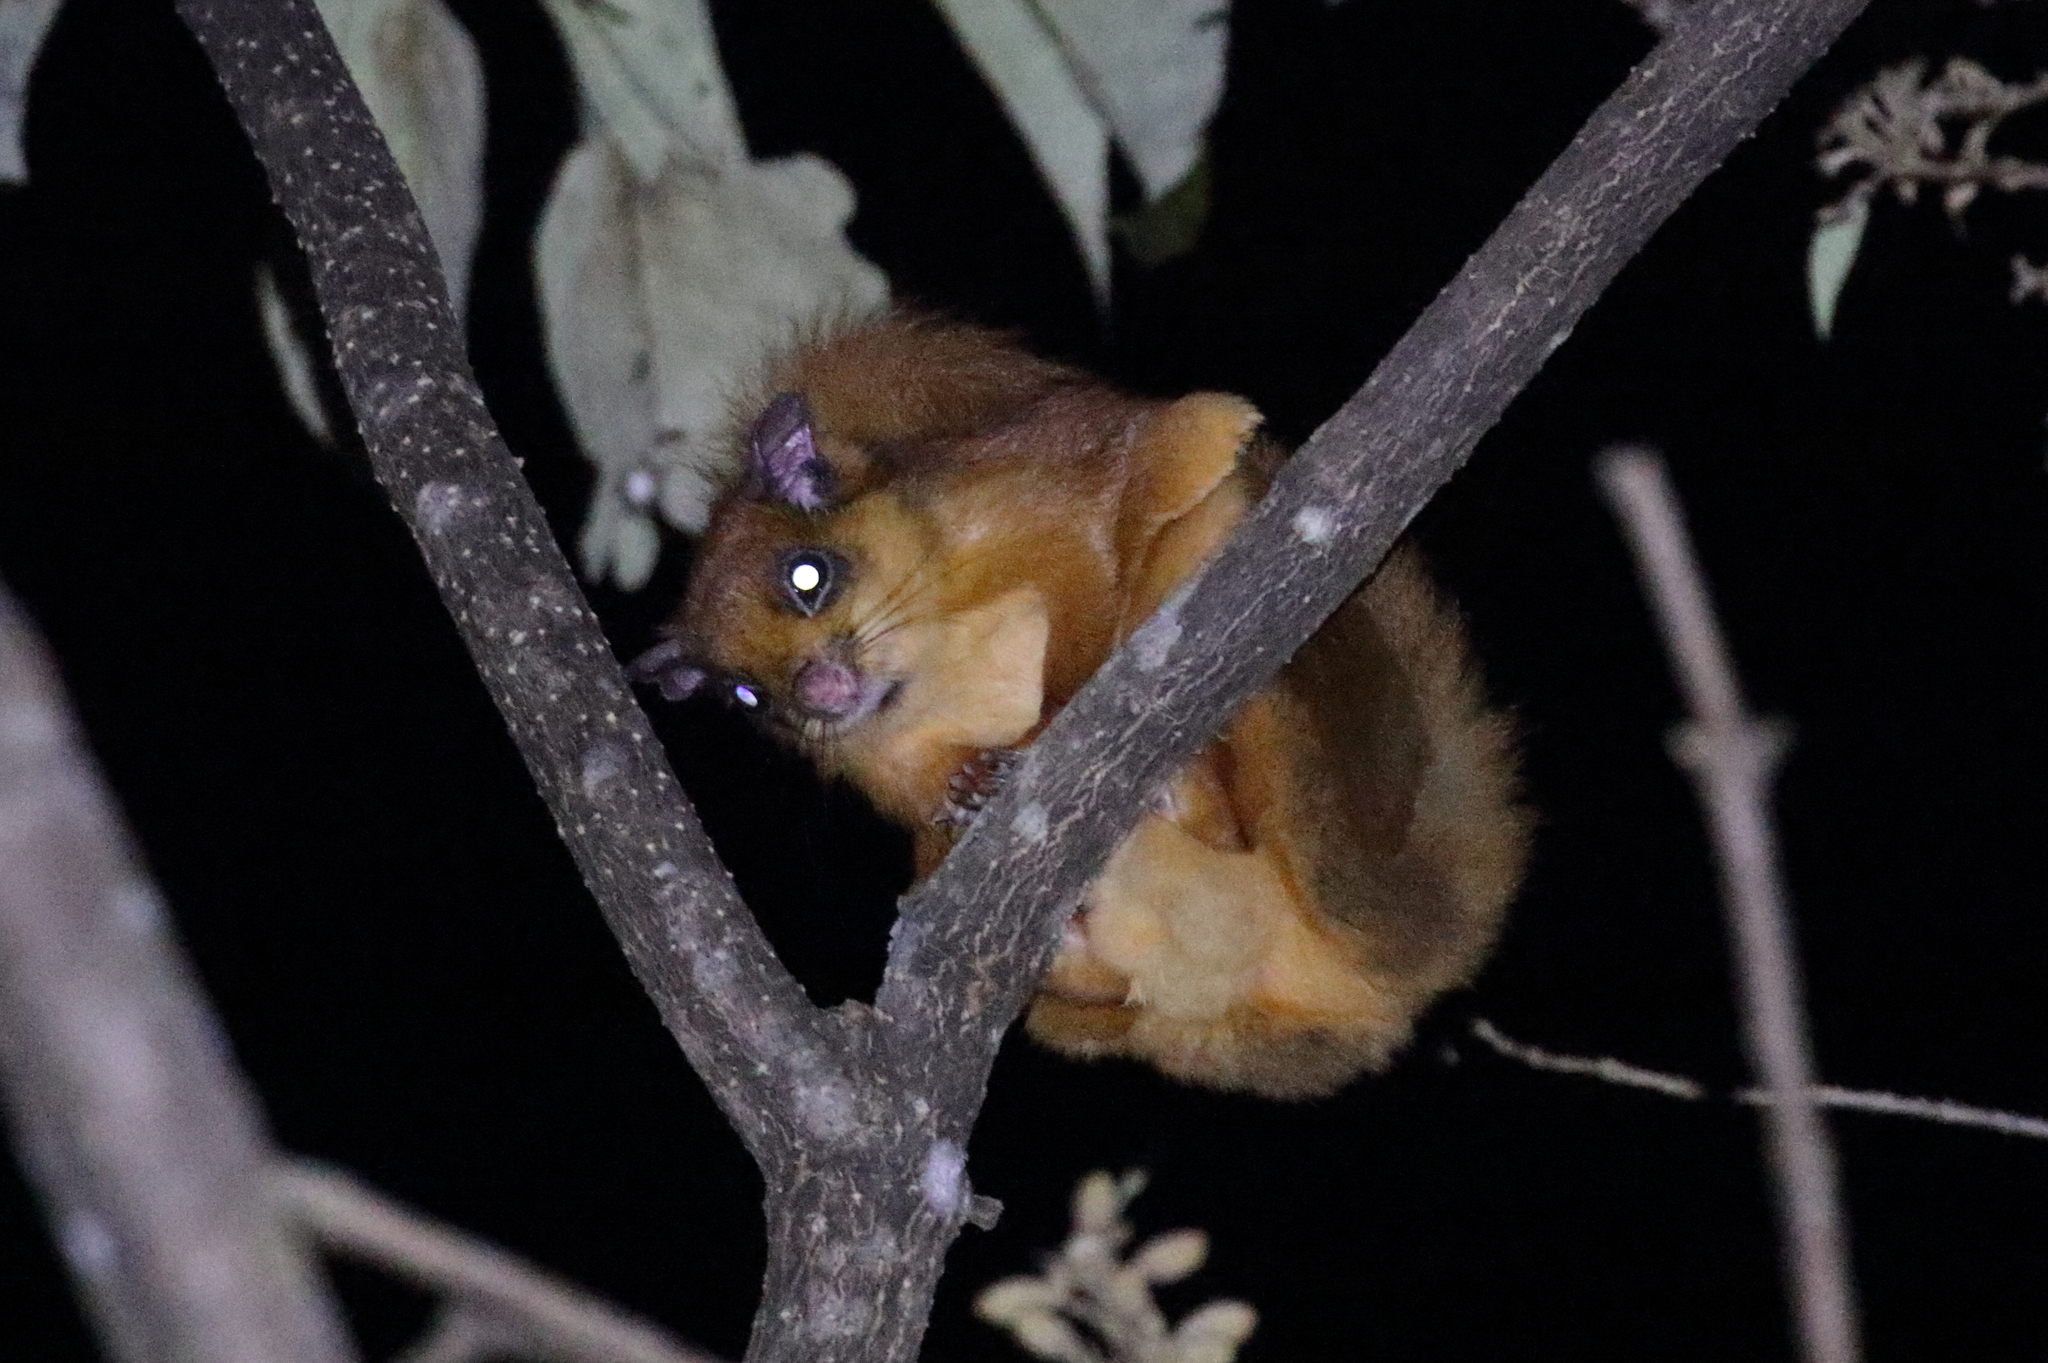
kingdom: Animalia
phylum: Chordata
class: Mammalia
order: Rodentia
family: Sciuridae
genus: Petaurista
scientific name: Petaurista petaurista
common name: Red giant flying squirrel
